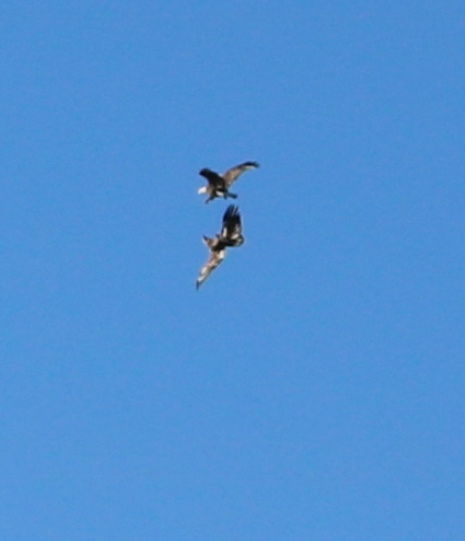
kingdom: Animalia
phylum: Chordata
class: Aves
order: Accipitriformes
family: Accipitridae
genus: Haliaeetus
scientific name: Haliaeetus leucocephalus
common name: Bald eagle
